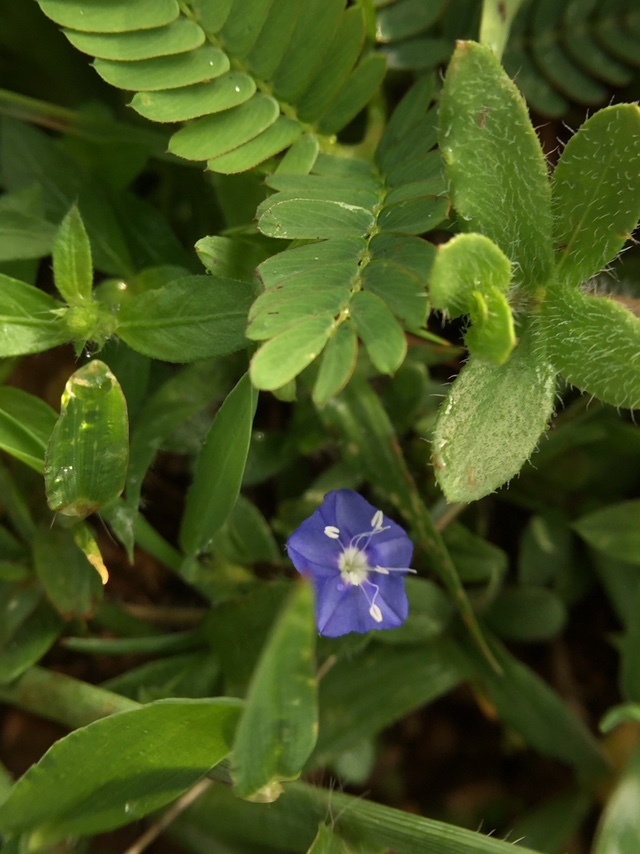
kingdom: Plantae
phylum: Tracheophyta
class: Magnoliopsida
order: Solanales
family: Convolvulaceae
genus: Evolvulus
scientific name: Evolvulus alsinoides
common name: Slender dwarf morning-glory
